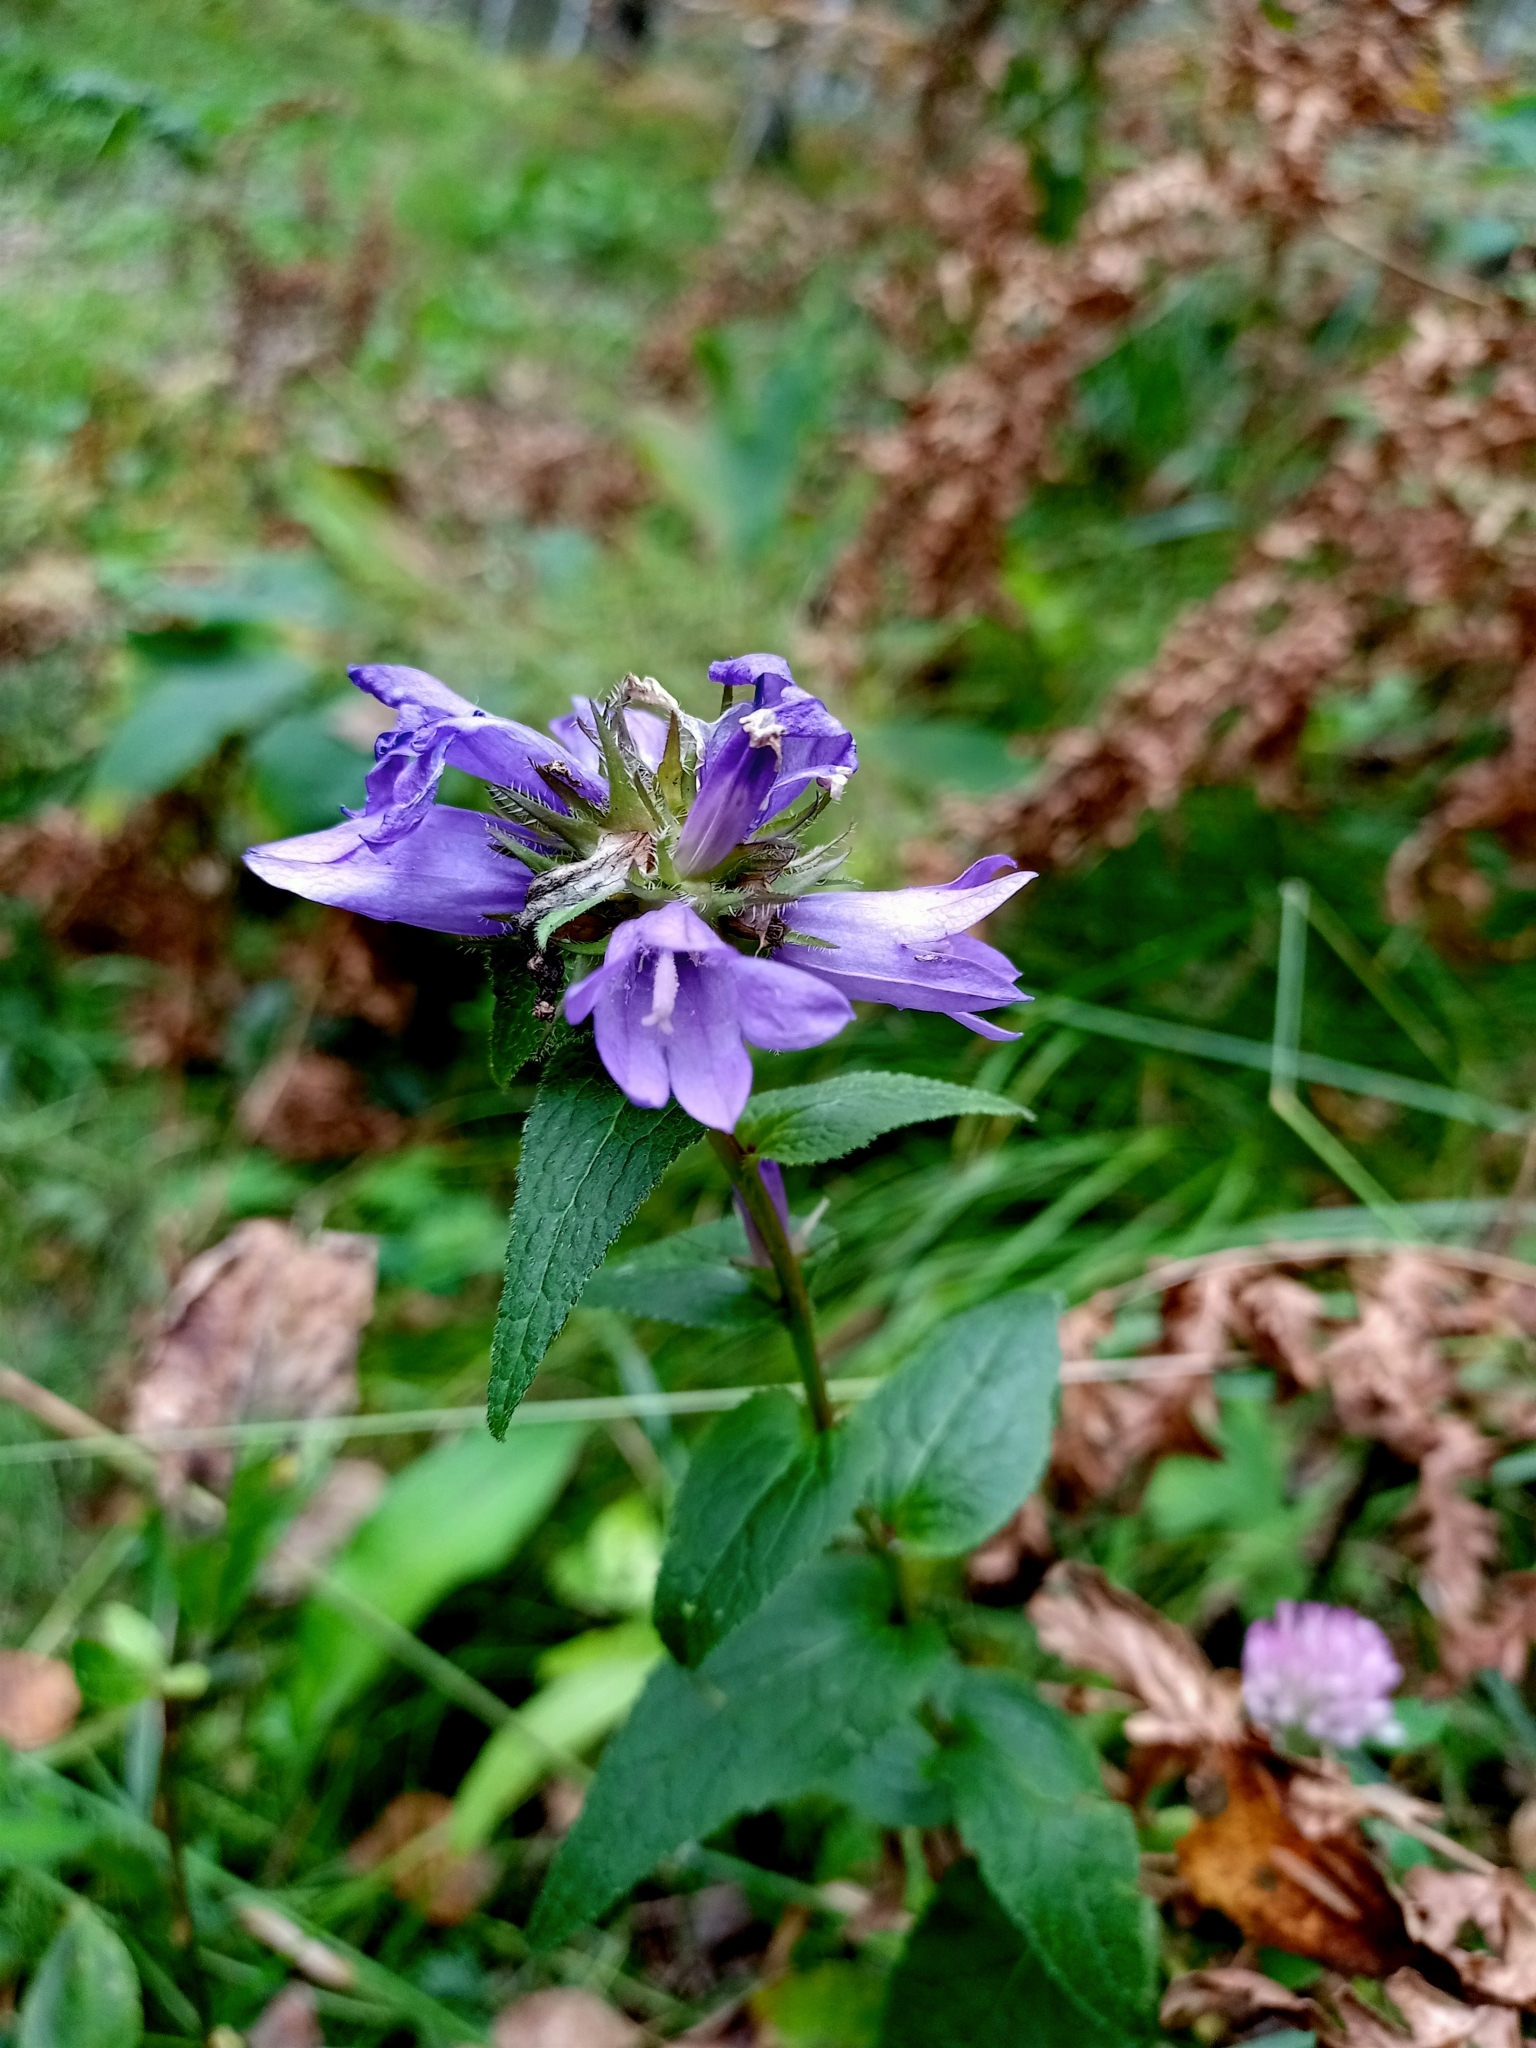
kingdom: Plantae
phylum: Tracheophyta
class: Magnoliopsida
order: Asterales
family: Campanulaceae
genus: Campanula
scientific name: Campanula glomerata
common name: Clustered bellflower
